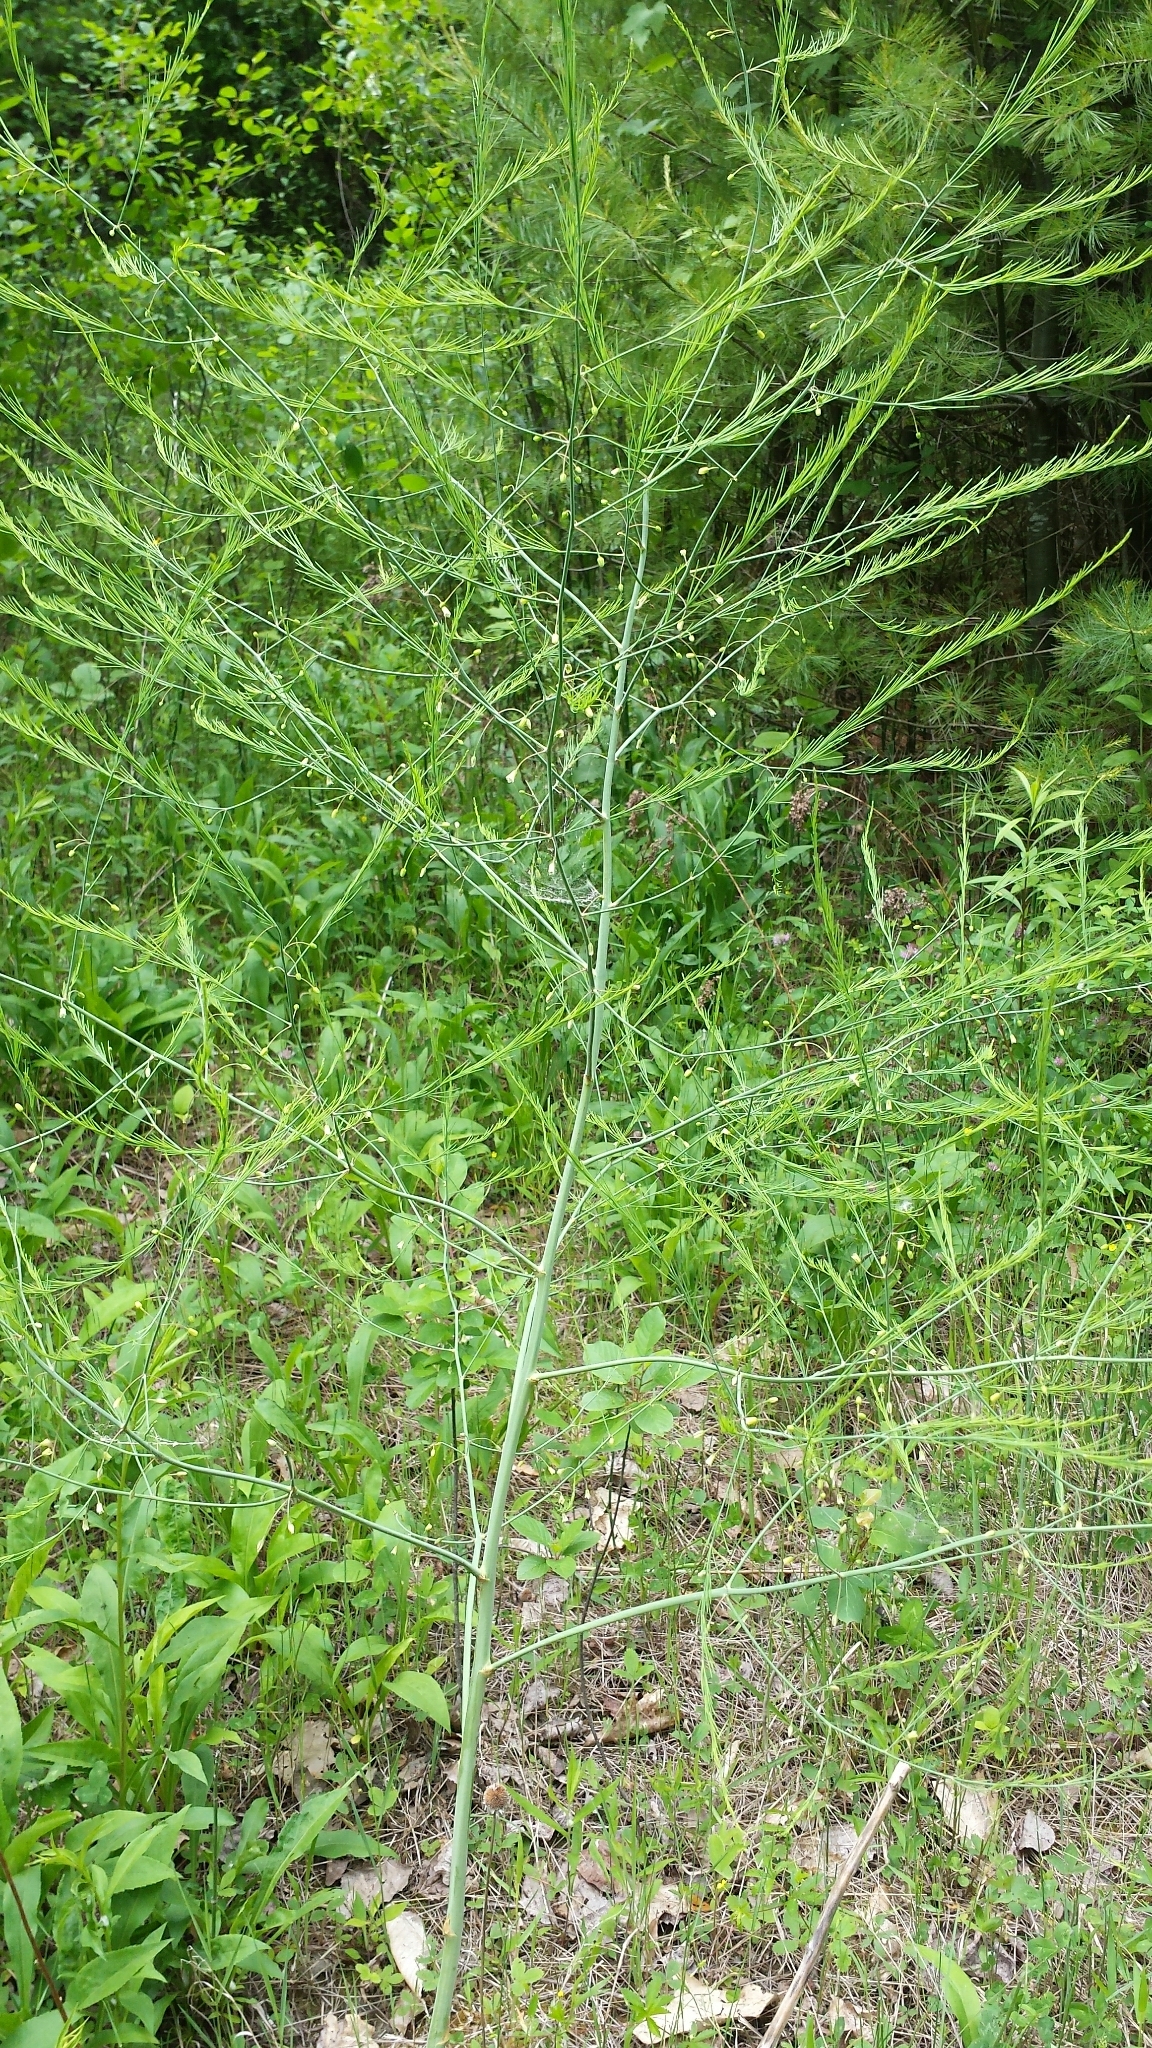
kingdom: Plantae
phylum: Tracheophyta
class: Liliopsida
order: Asparagales
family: Asparagaceae
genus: Asparagus
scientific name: Asparagus officinalis
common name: Garden asparagus
